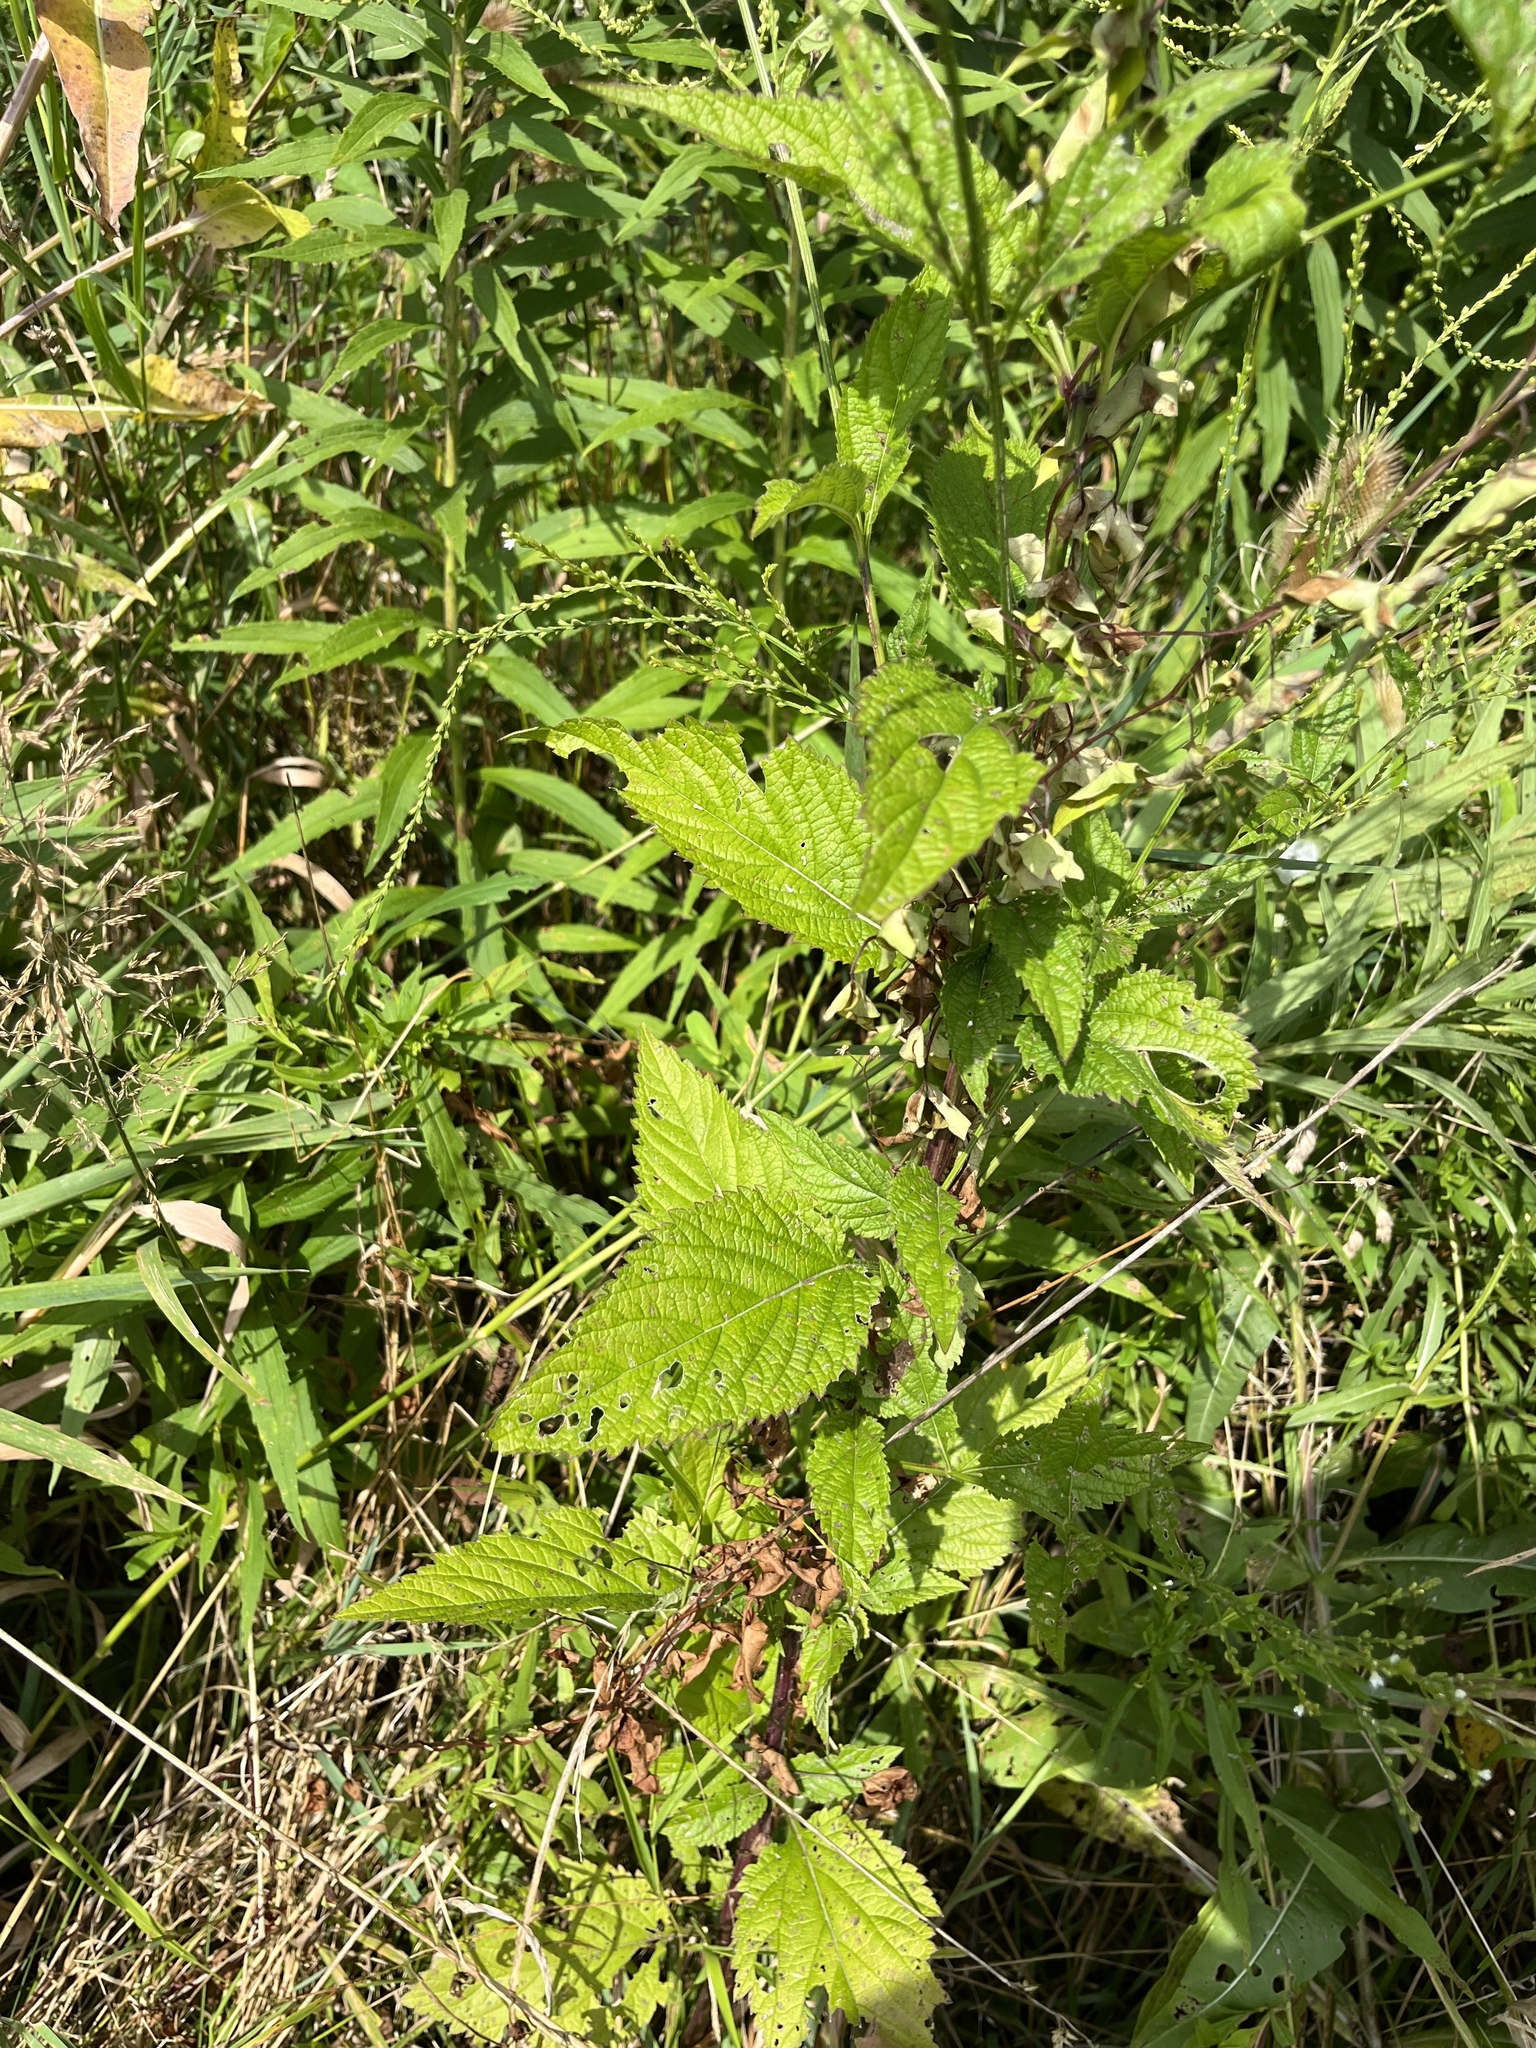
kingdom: Plantae
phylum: Tracheophyta
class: Magnoliopsida
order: Lamiales
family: Verbenaceae
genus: Verbena
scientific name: Verbena urticifolia
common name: Nettle-leaved vervain
